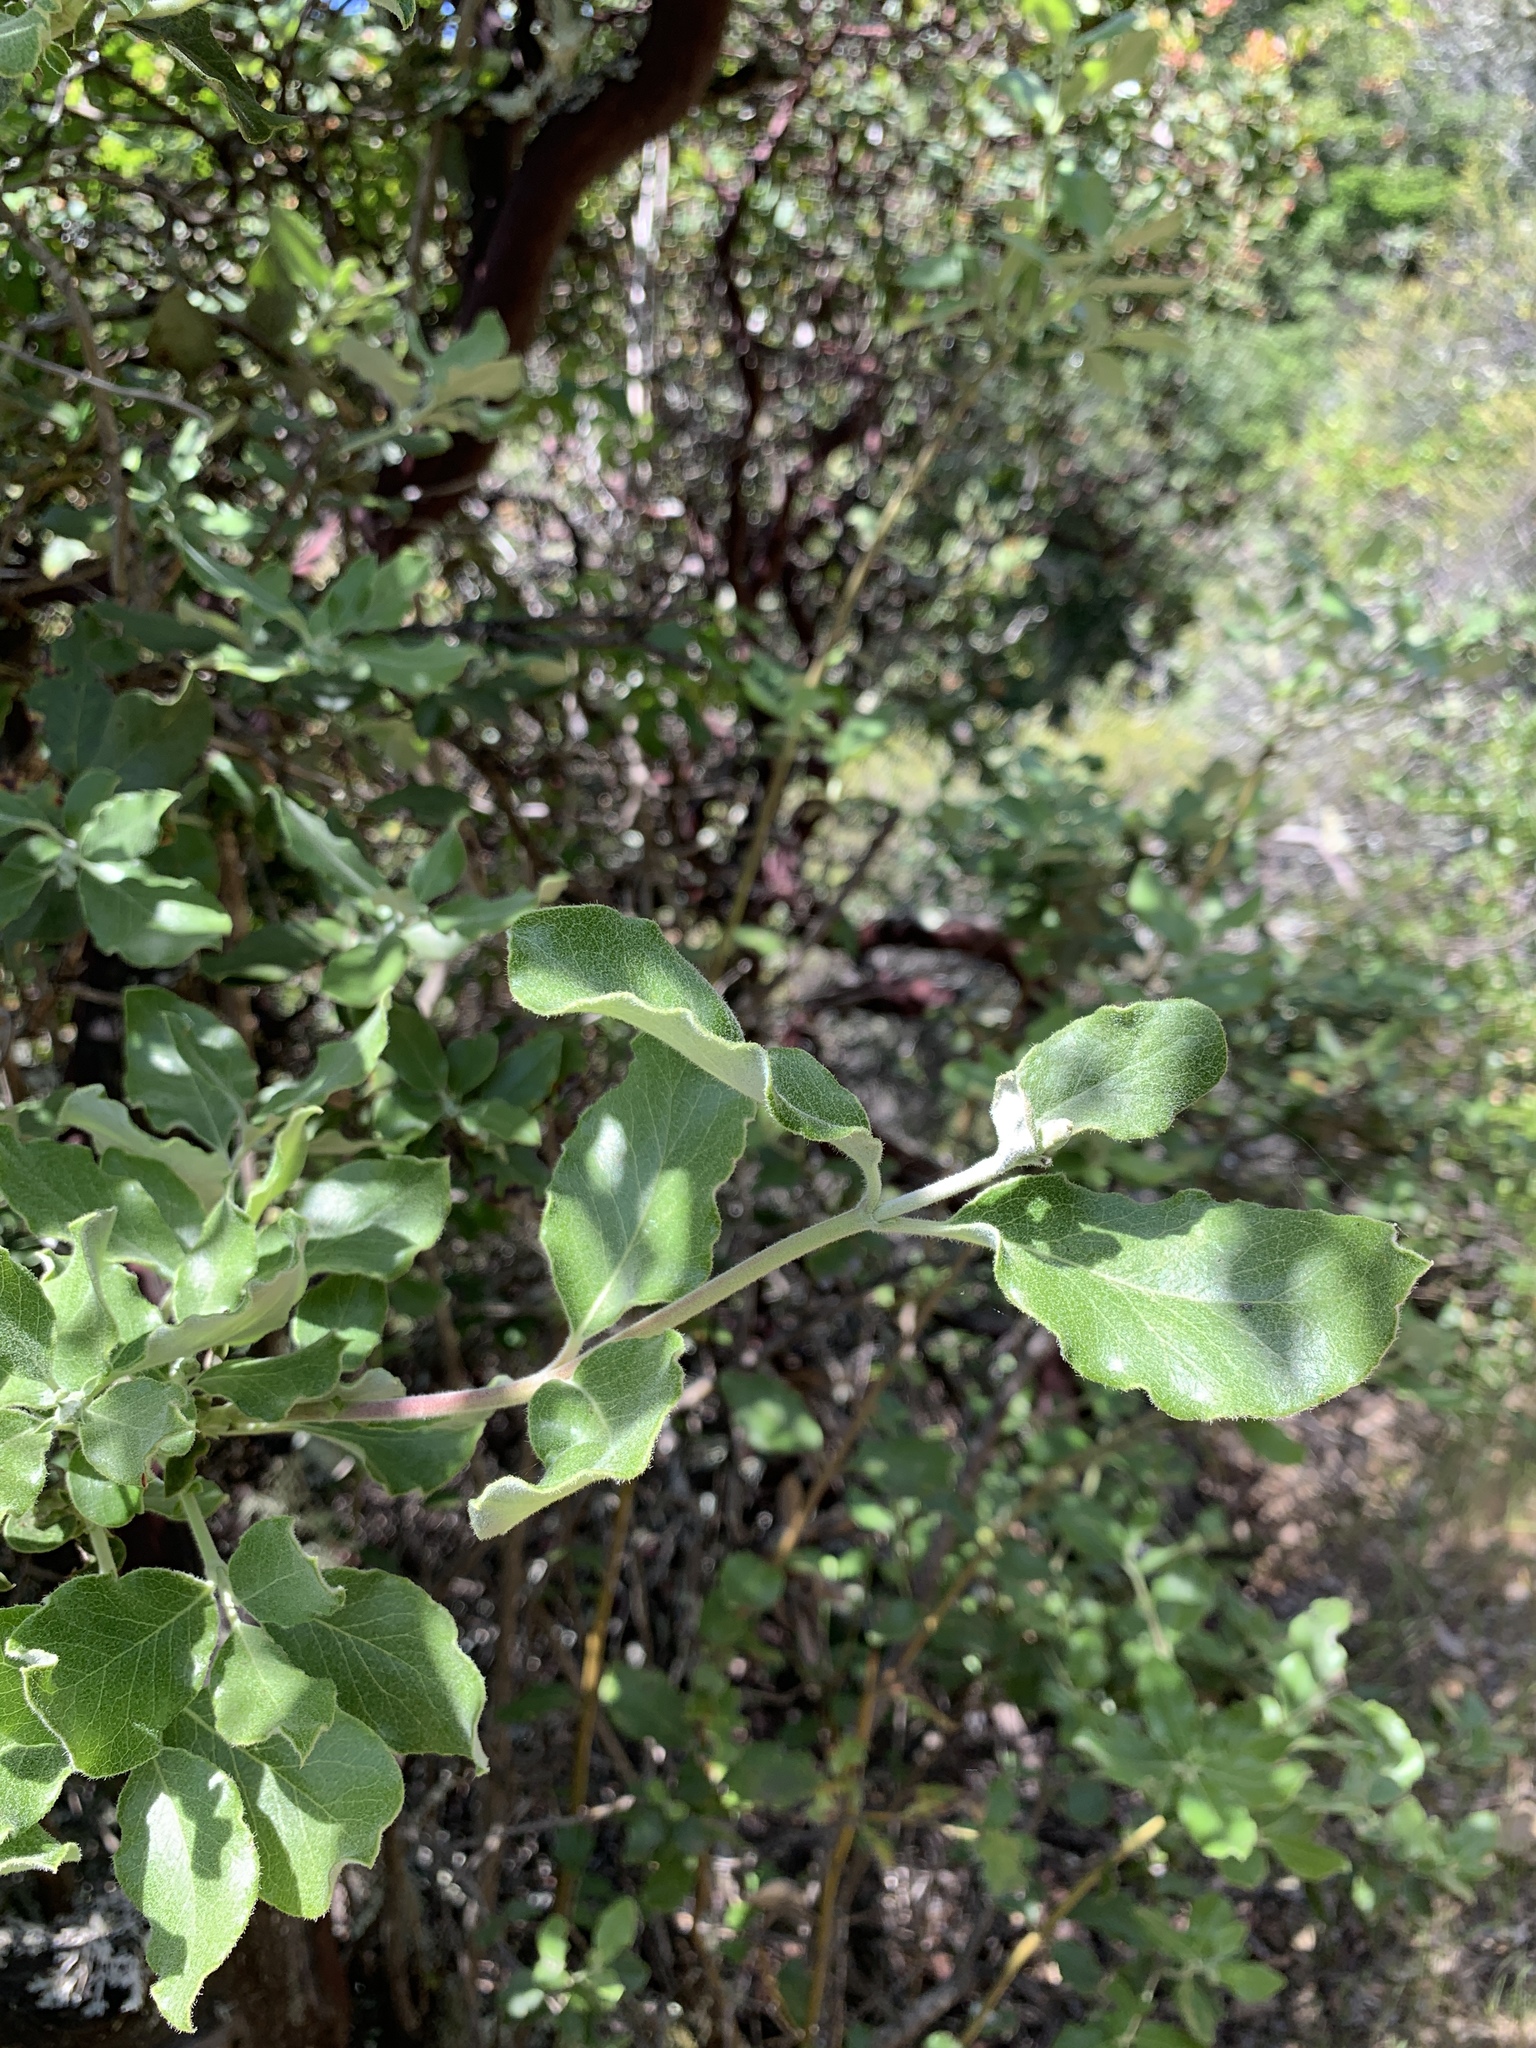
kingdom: Plantae
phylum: Tracheophyta
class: Magnoliopsida
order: Garryales
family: Garryaceae
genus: Garrya
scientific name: Garrya elliptica
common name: Silk-tassel
